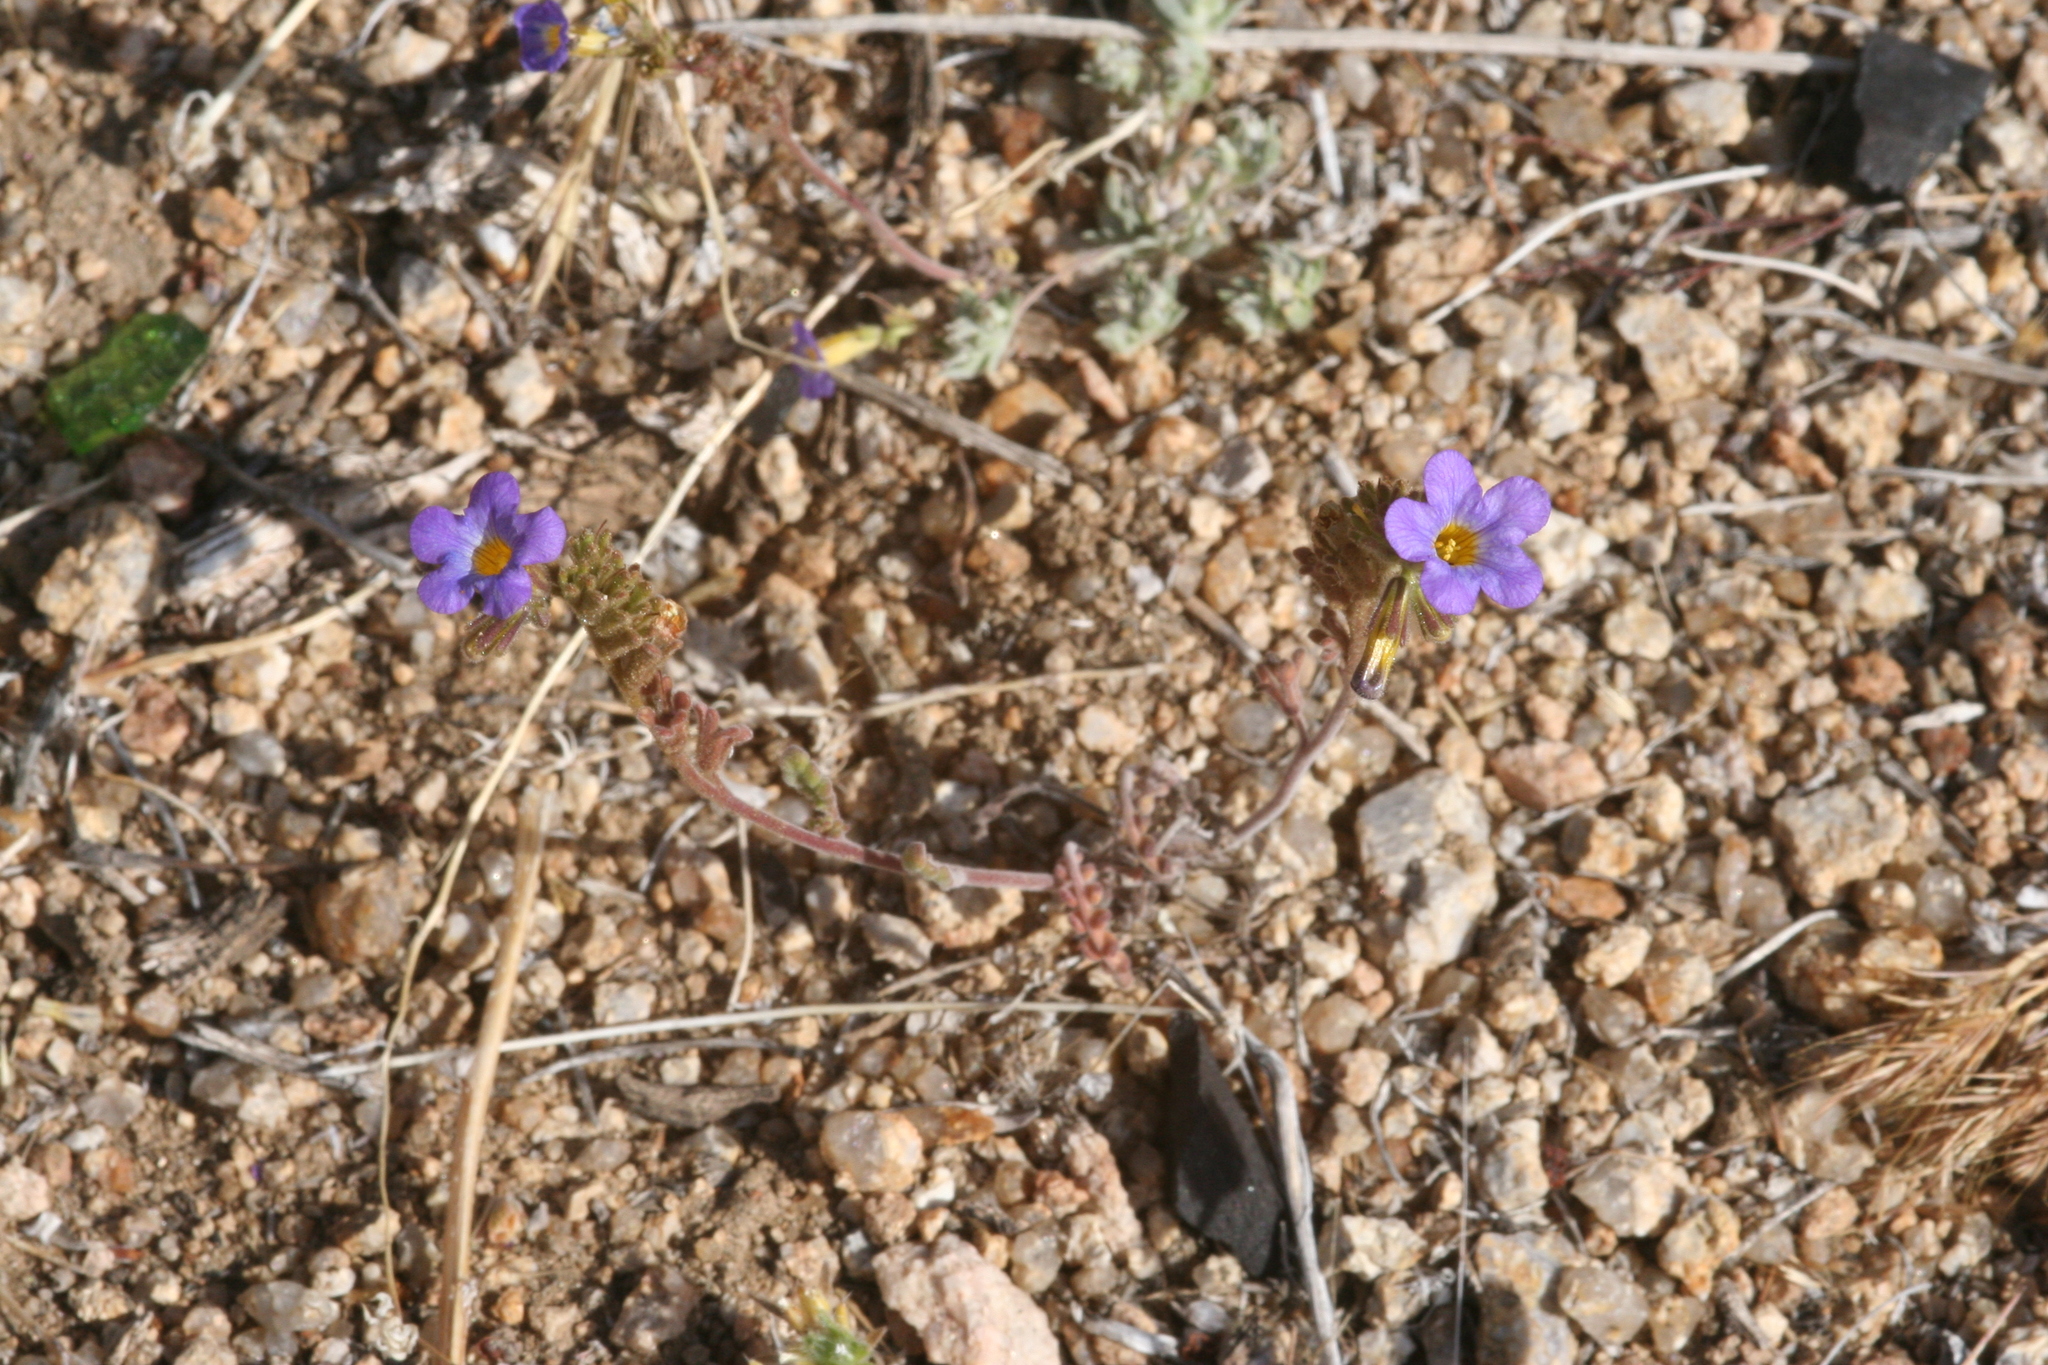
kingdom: Plantae
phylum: Tracheophyta
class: Magnoliopsida
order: Boraginales
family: Hydrophyllaceae
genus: Phacelia
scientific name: Phacelia fremontii
